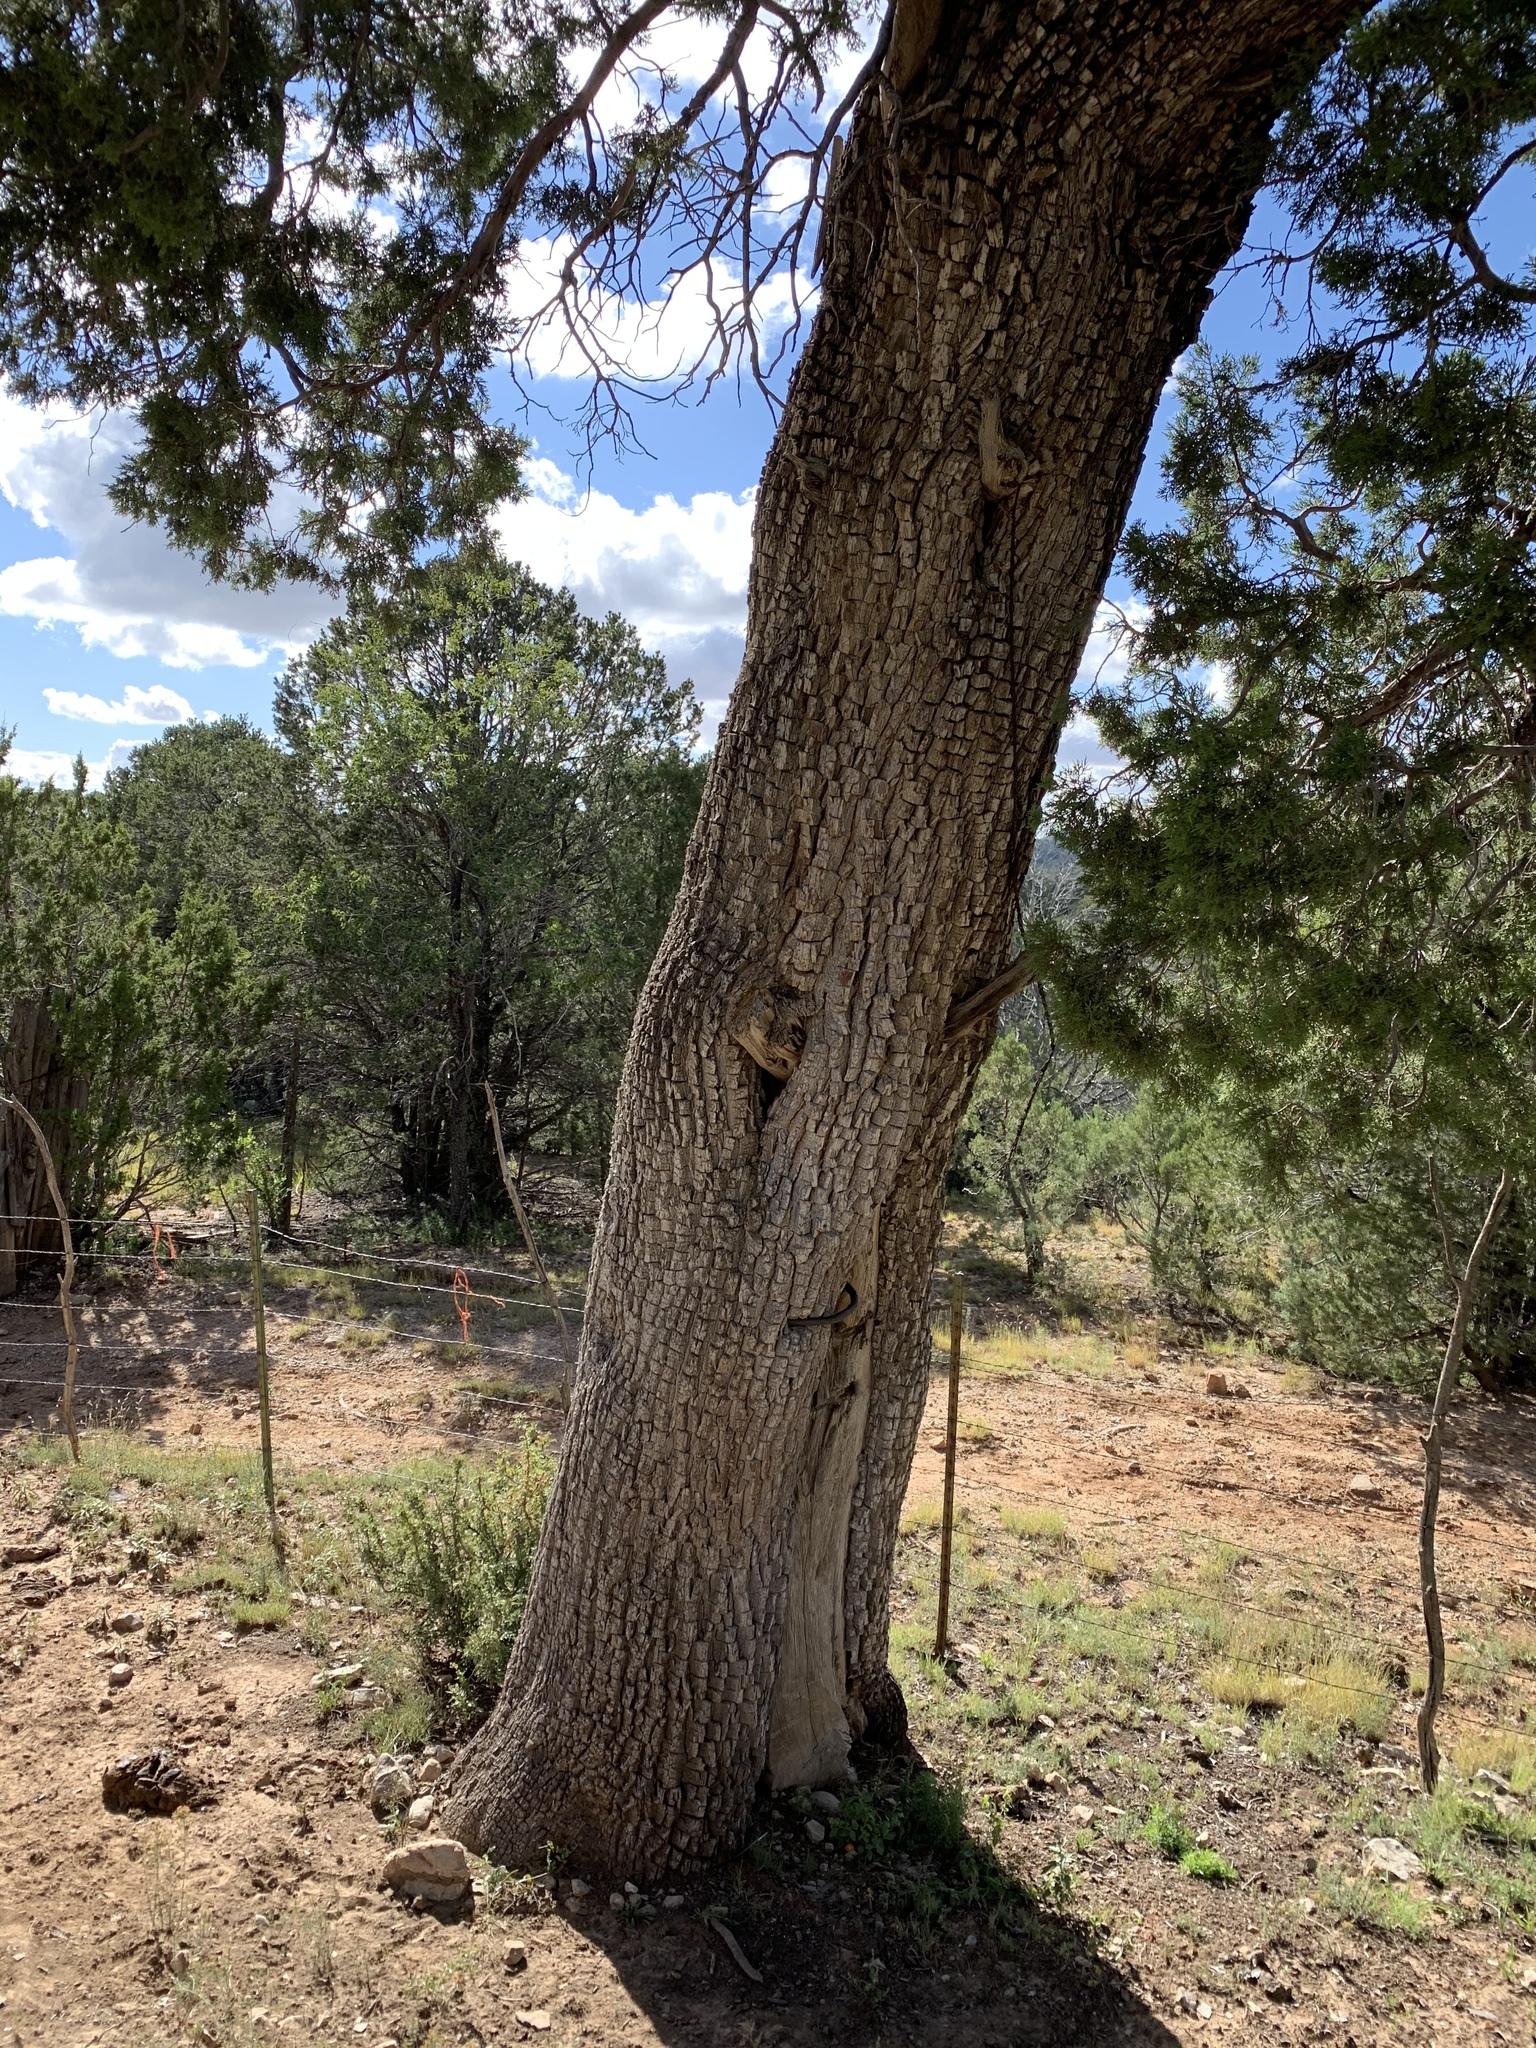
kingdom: Plantae
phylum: Tracheophyta
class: Pinopsida
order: Pinales
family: Cupressaceae
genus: Juniperus
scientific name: Juniperus deppeana
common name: Alligator juniper
